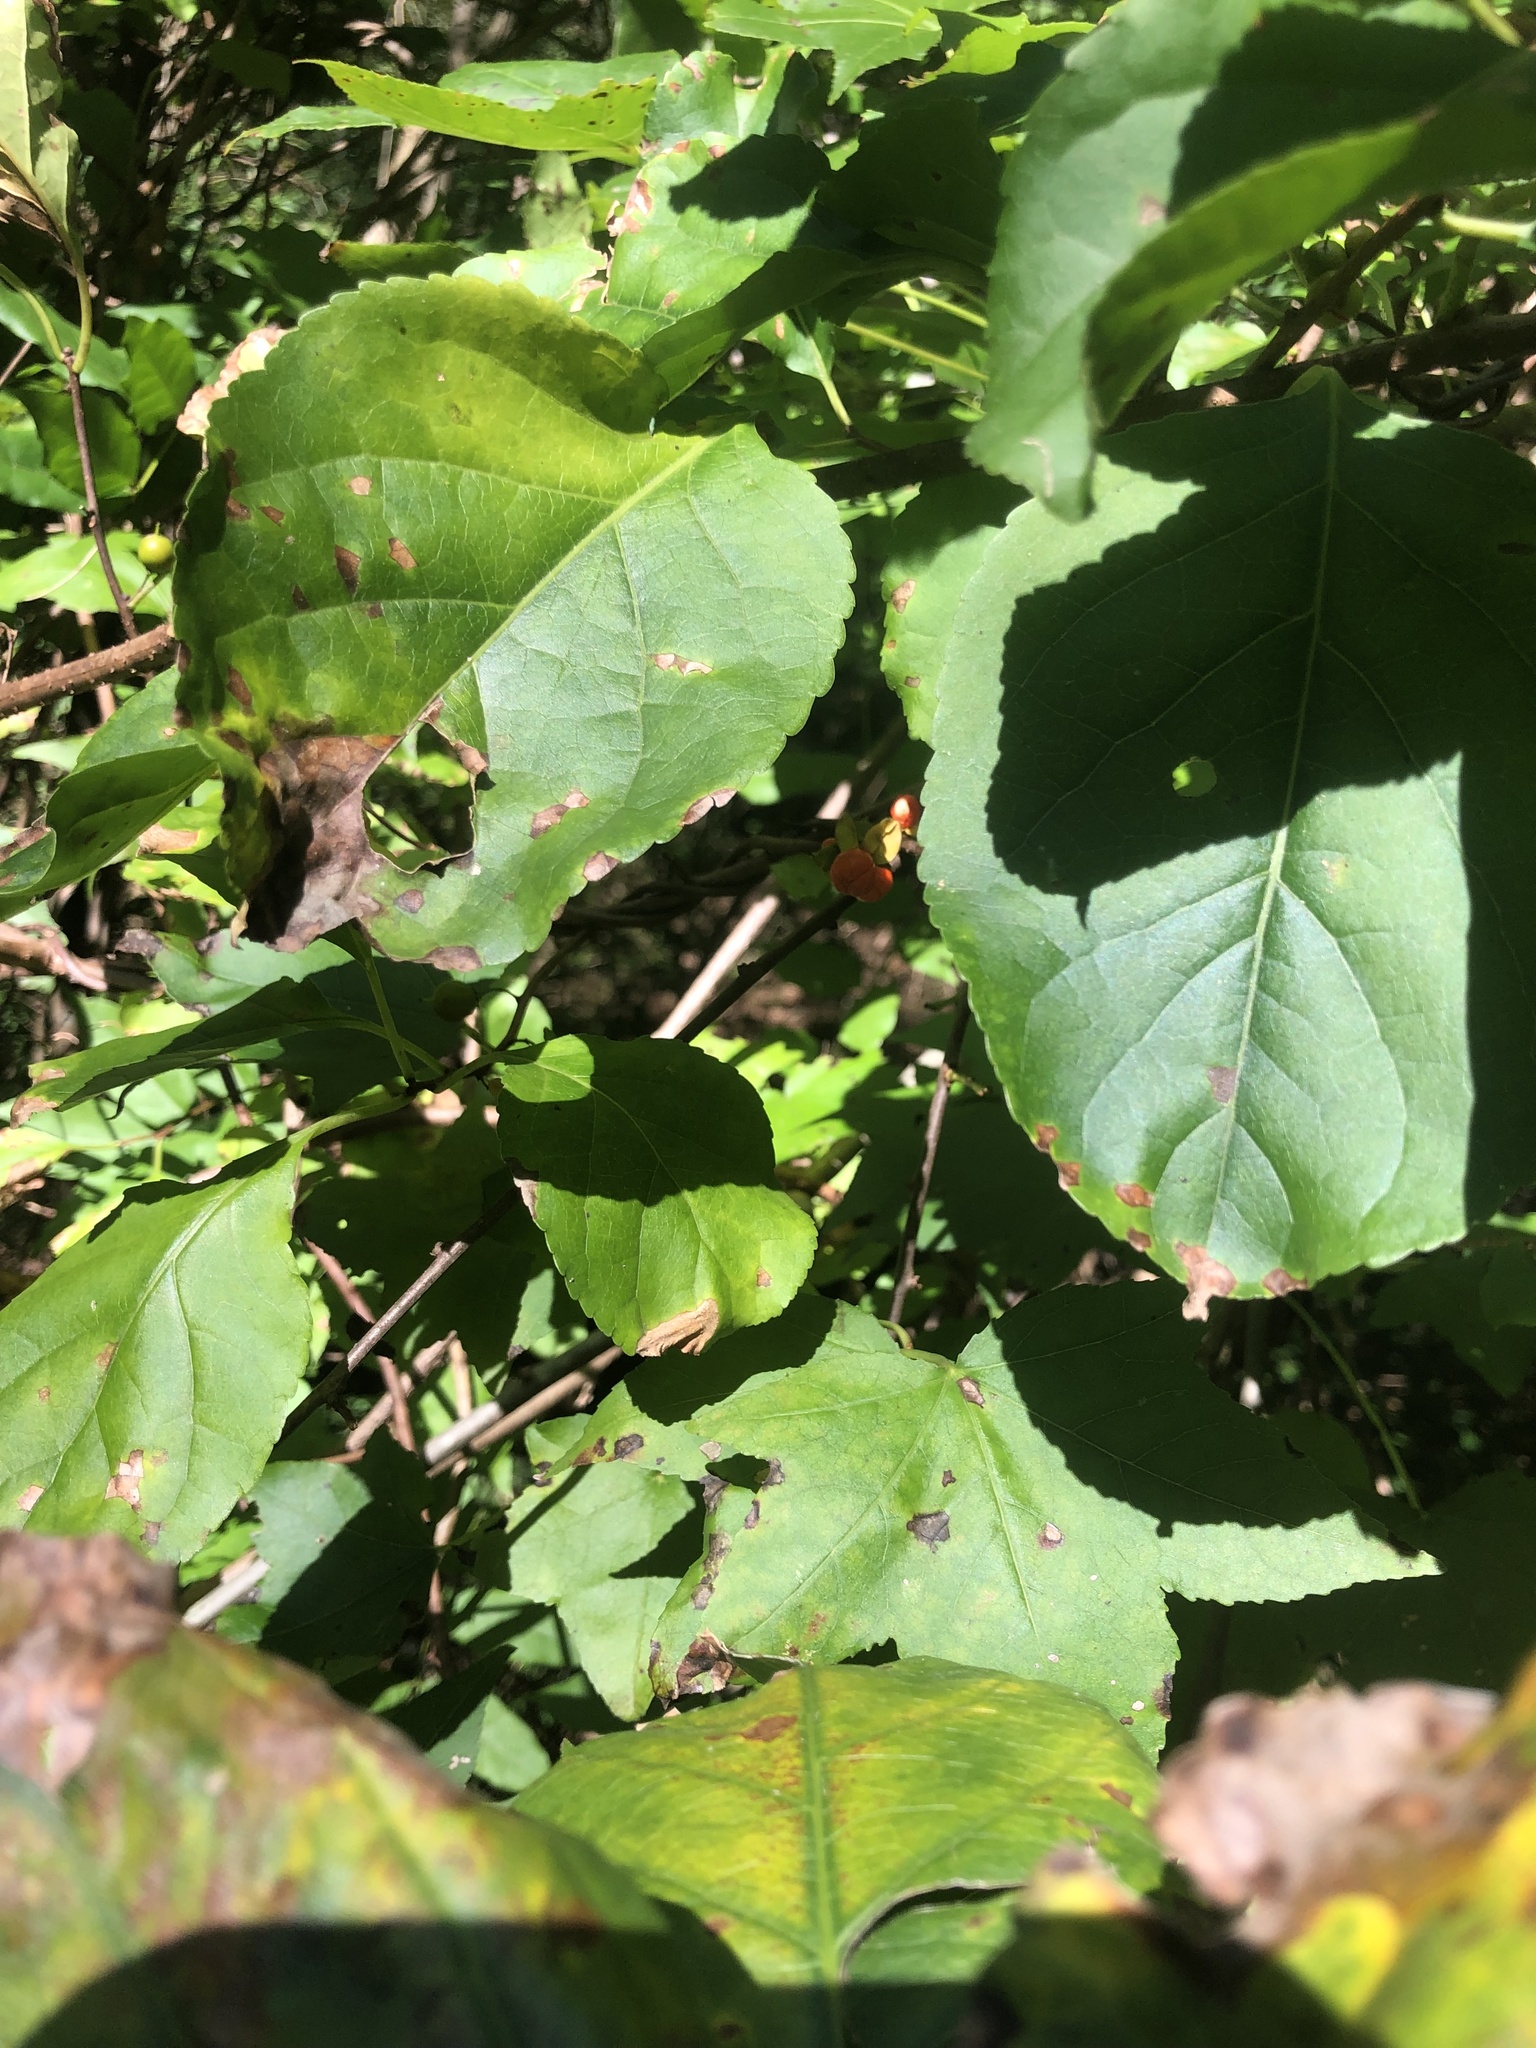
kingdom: Plantae
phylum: Tracheophyta
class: Magnoliopsida
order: Celastrales
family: Celastraceae
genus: Celastrus
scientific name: Celastrus orbiculatus
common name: Oriental bittersweet
